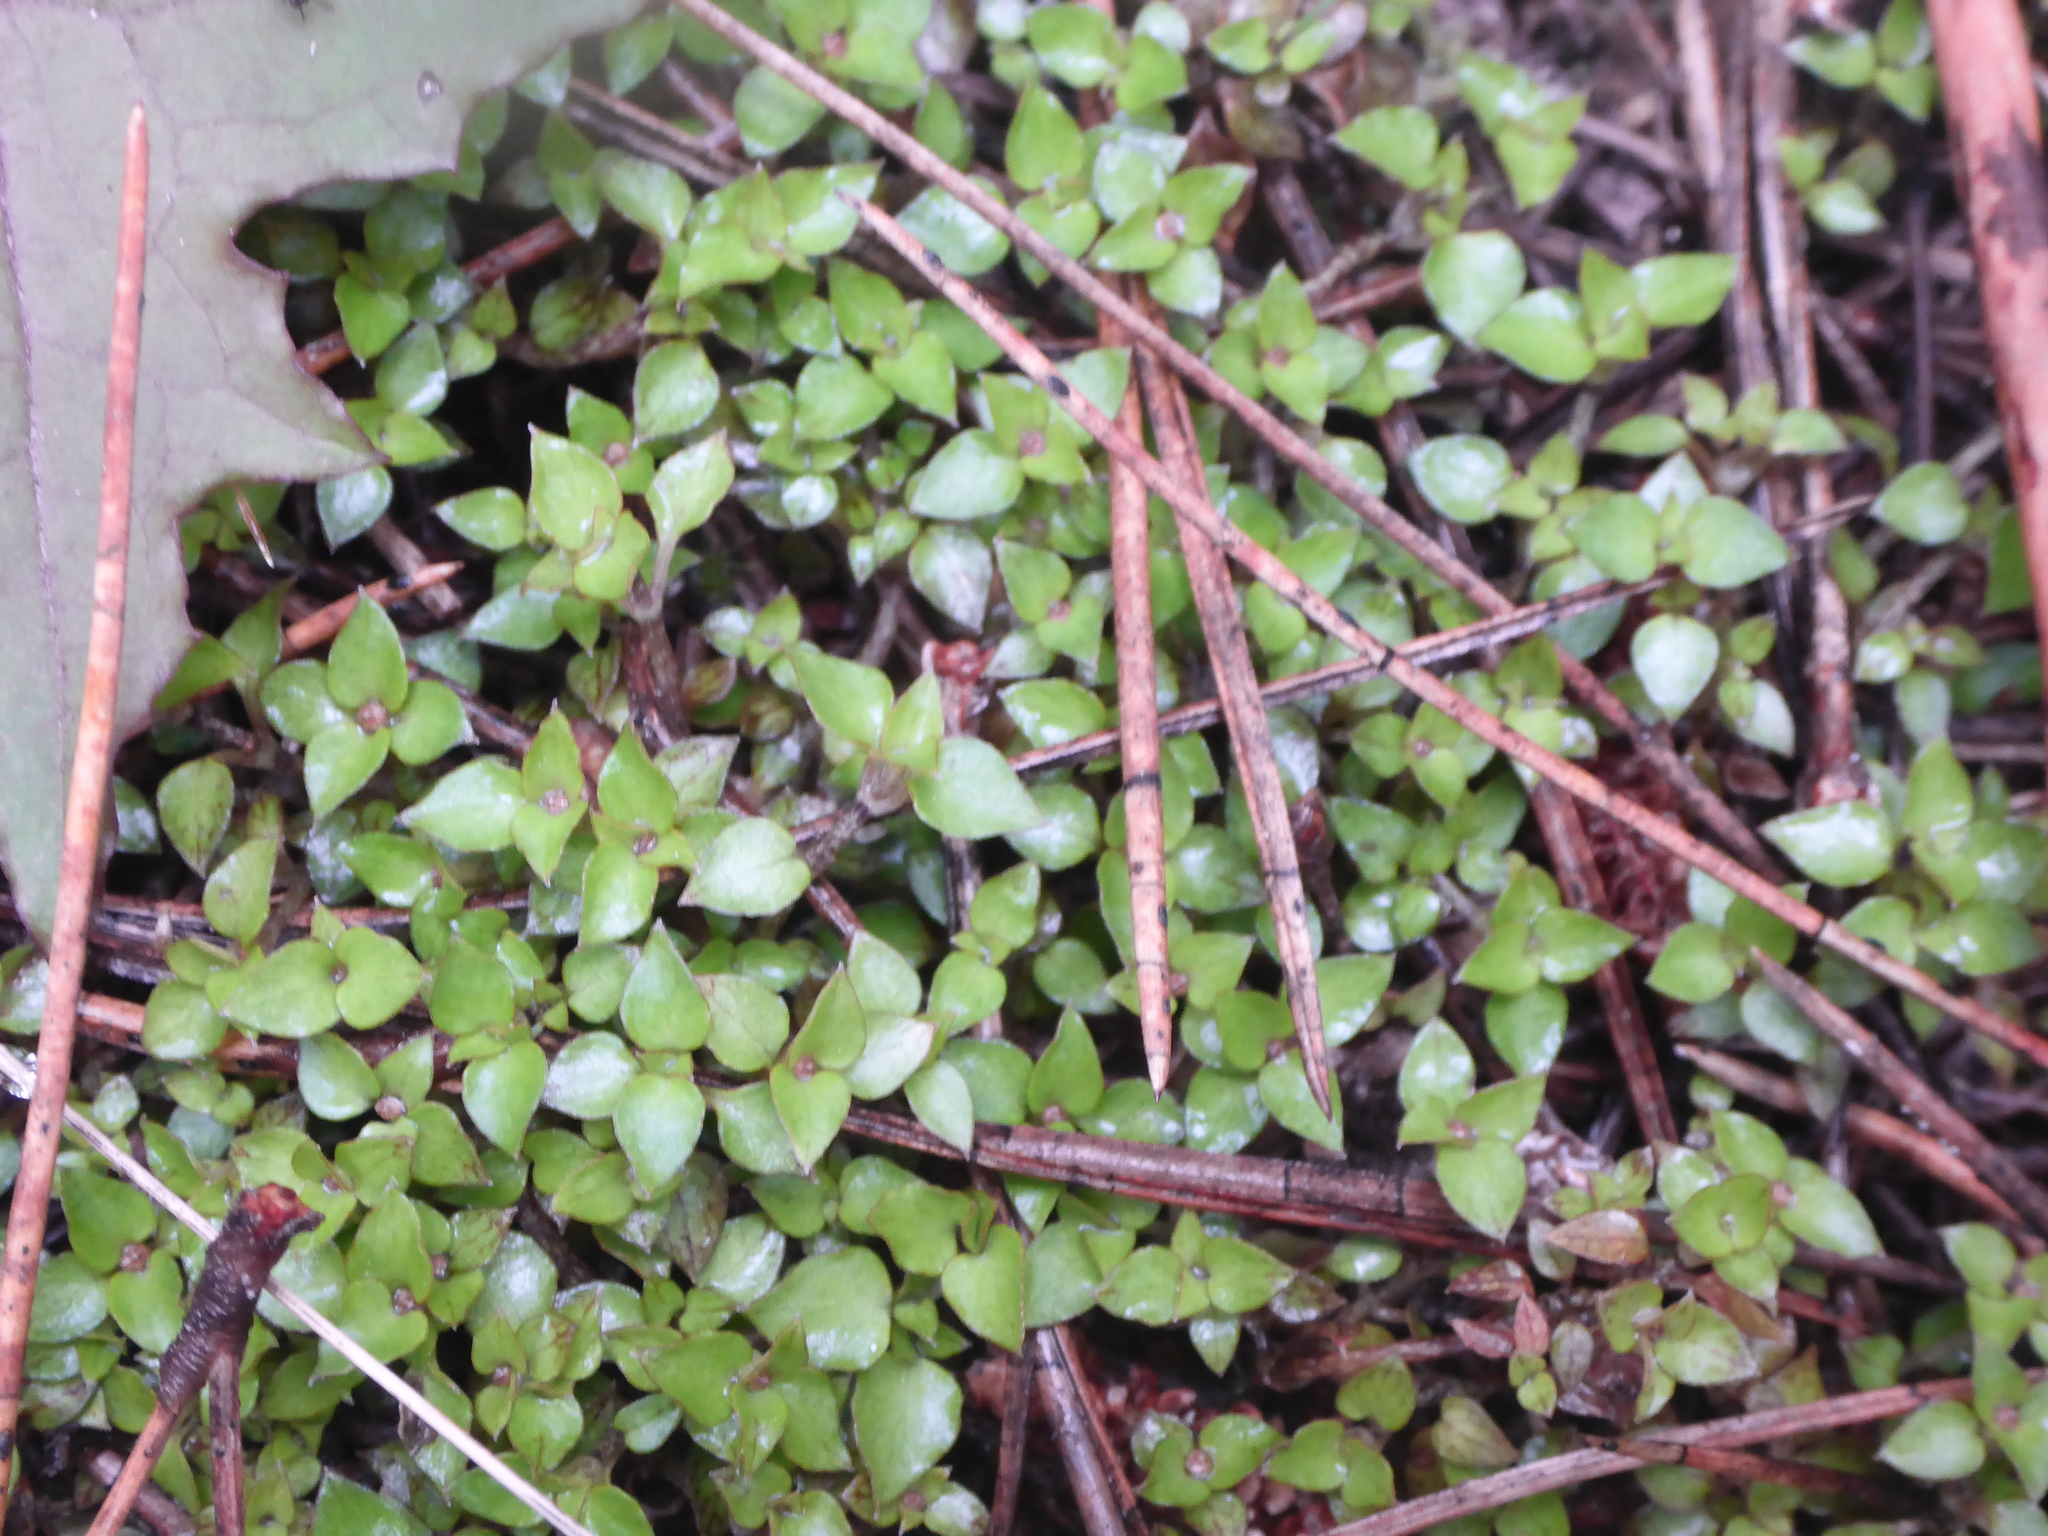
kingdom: Plantae
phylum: Tracheophyta
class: Magnoliopsida
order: Gentianales
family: Rubiaceae
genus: Nertera
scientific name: Nertera granadensis
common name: Beadplant
